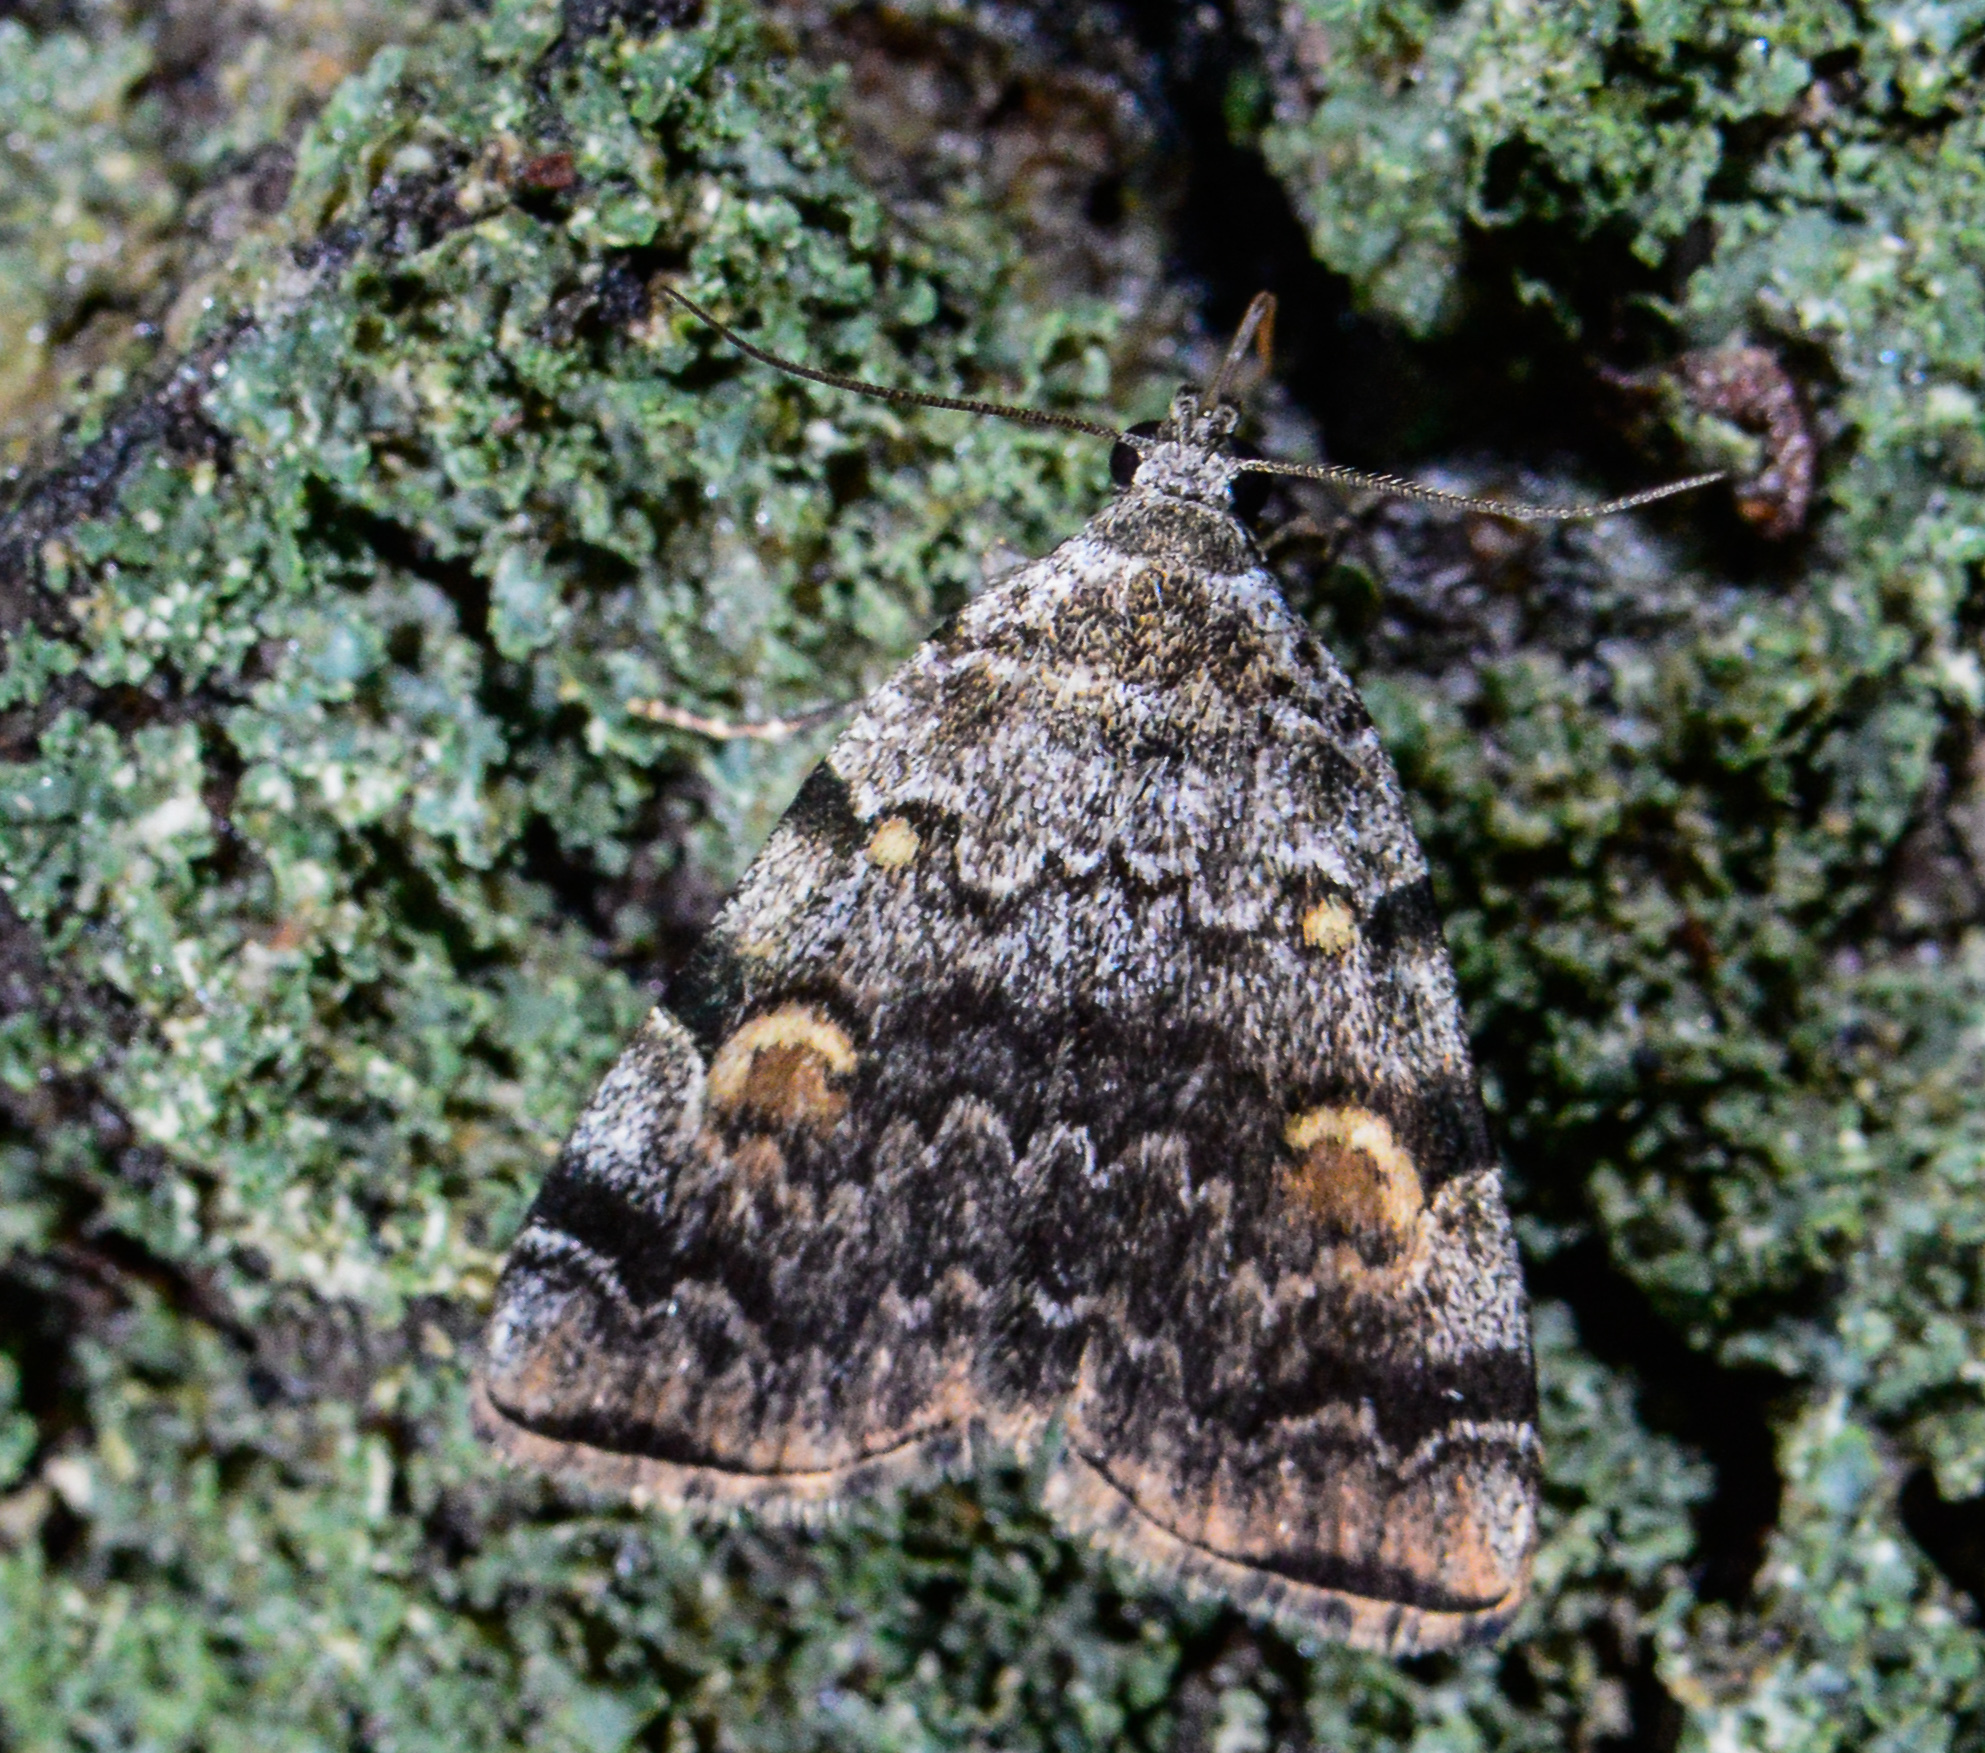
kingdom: Animalia
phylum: Arthropoda
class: Insecta
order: Lepidoptera
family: Erebidae
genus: Idia
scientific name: Idia americalis
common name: American idia moth
